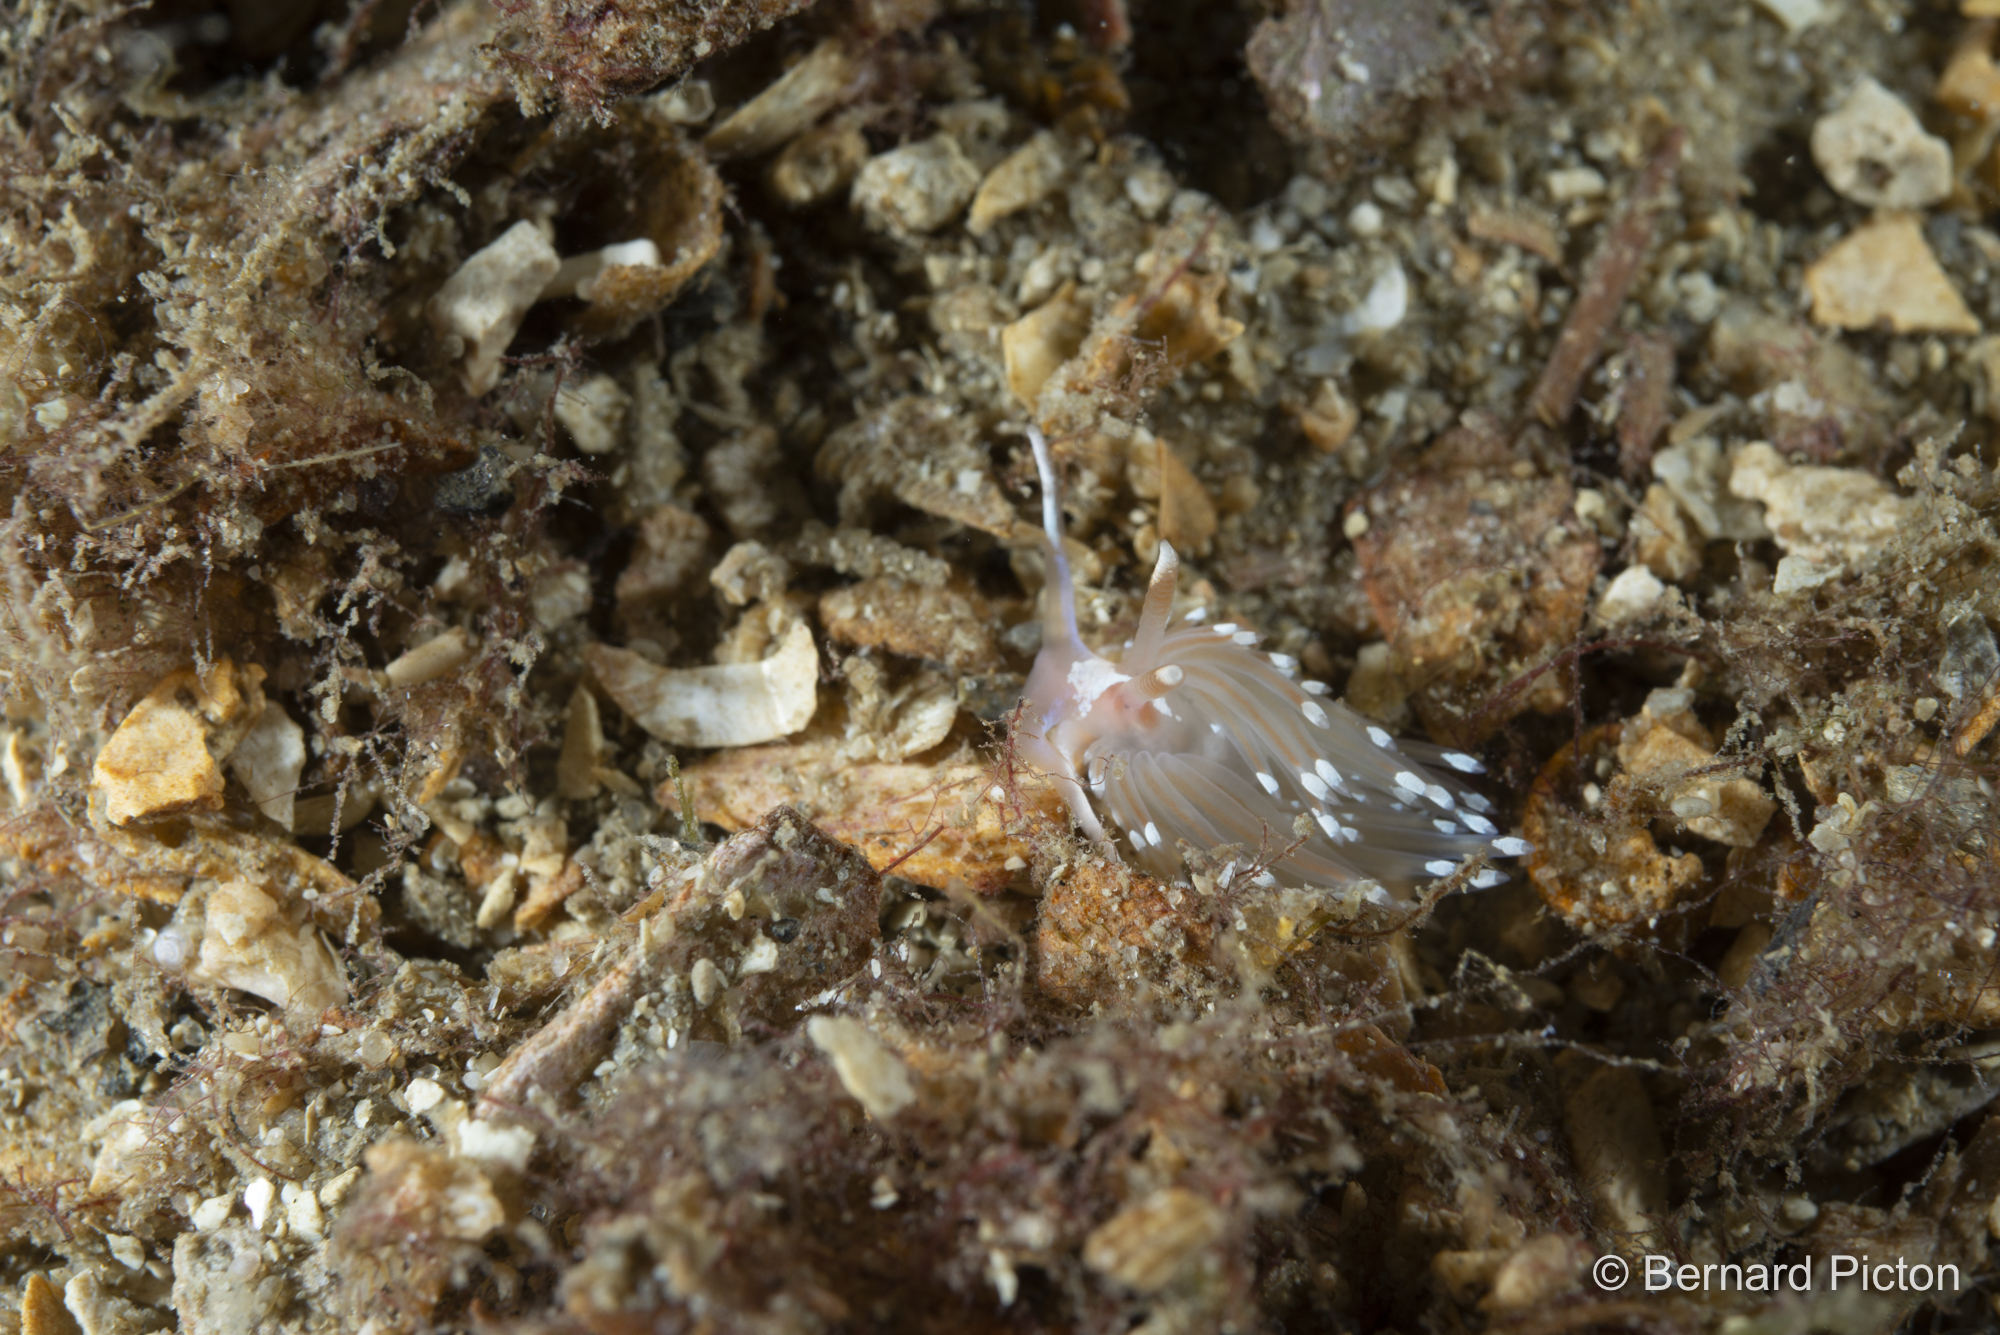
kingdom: Animalia
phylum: Mollusca
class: Gastropoda
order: Nudibranchia
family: Facelinidae
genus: Facelina
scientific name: Facelina bostoniensis
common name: Boston facelina
